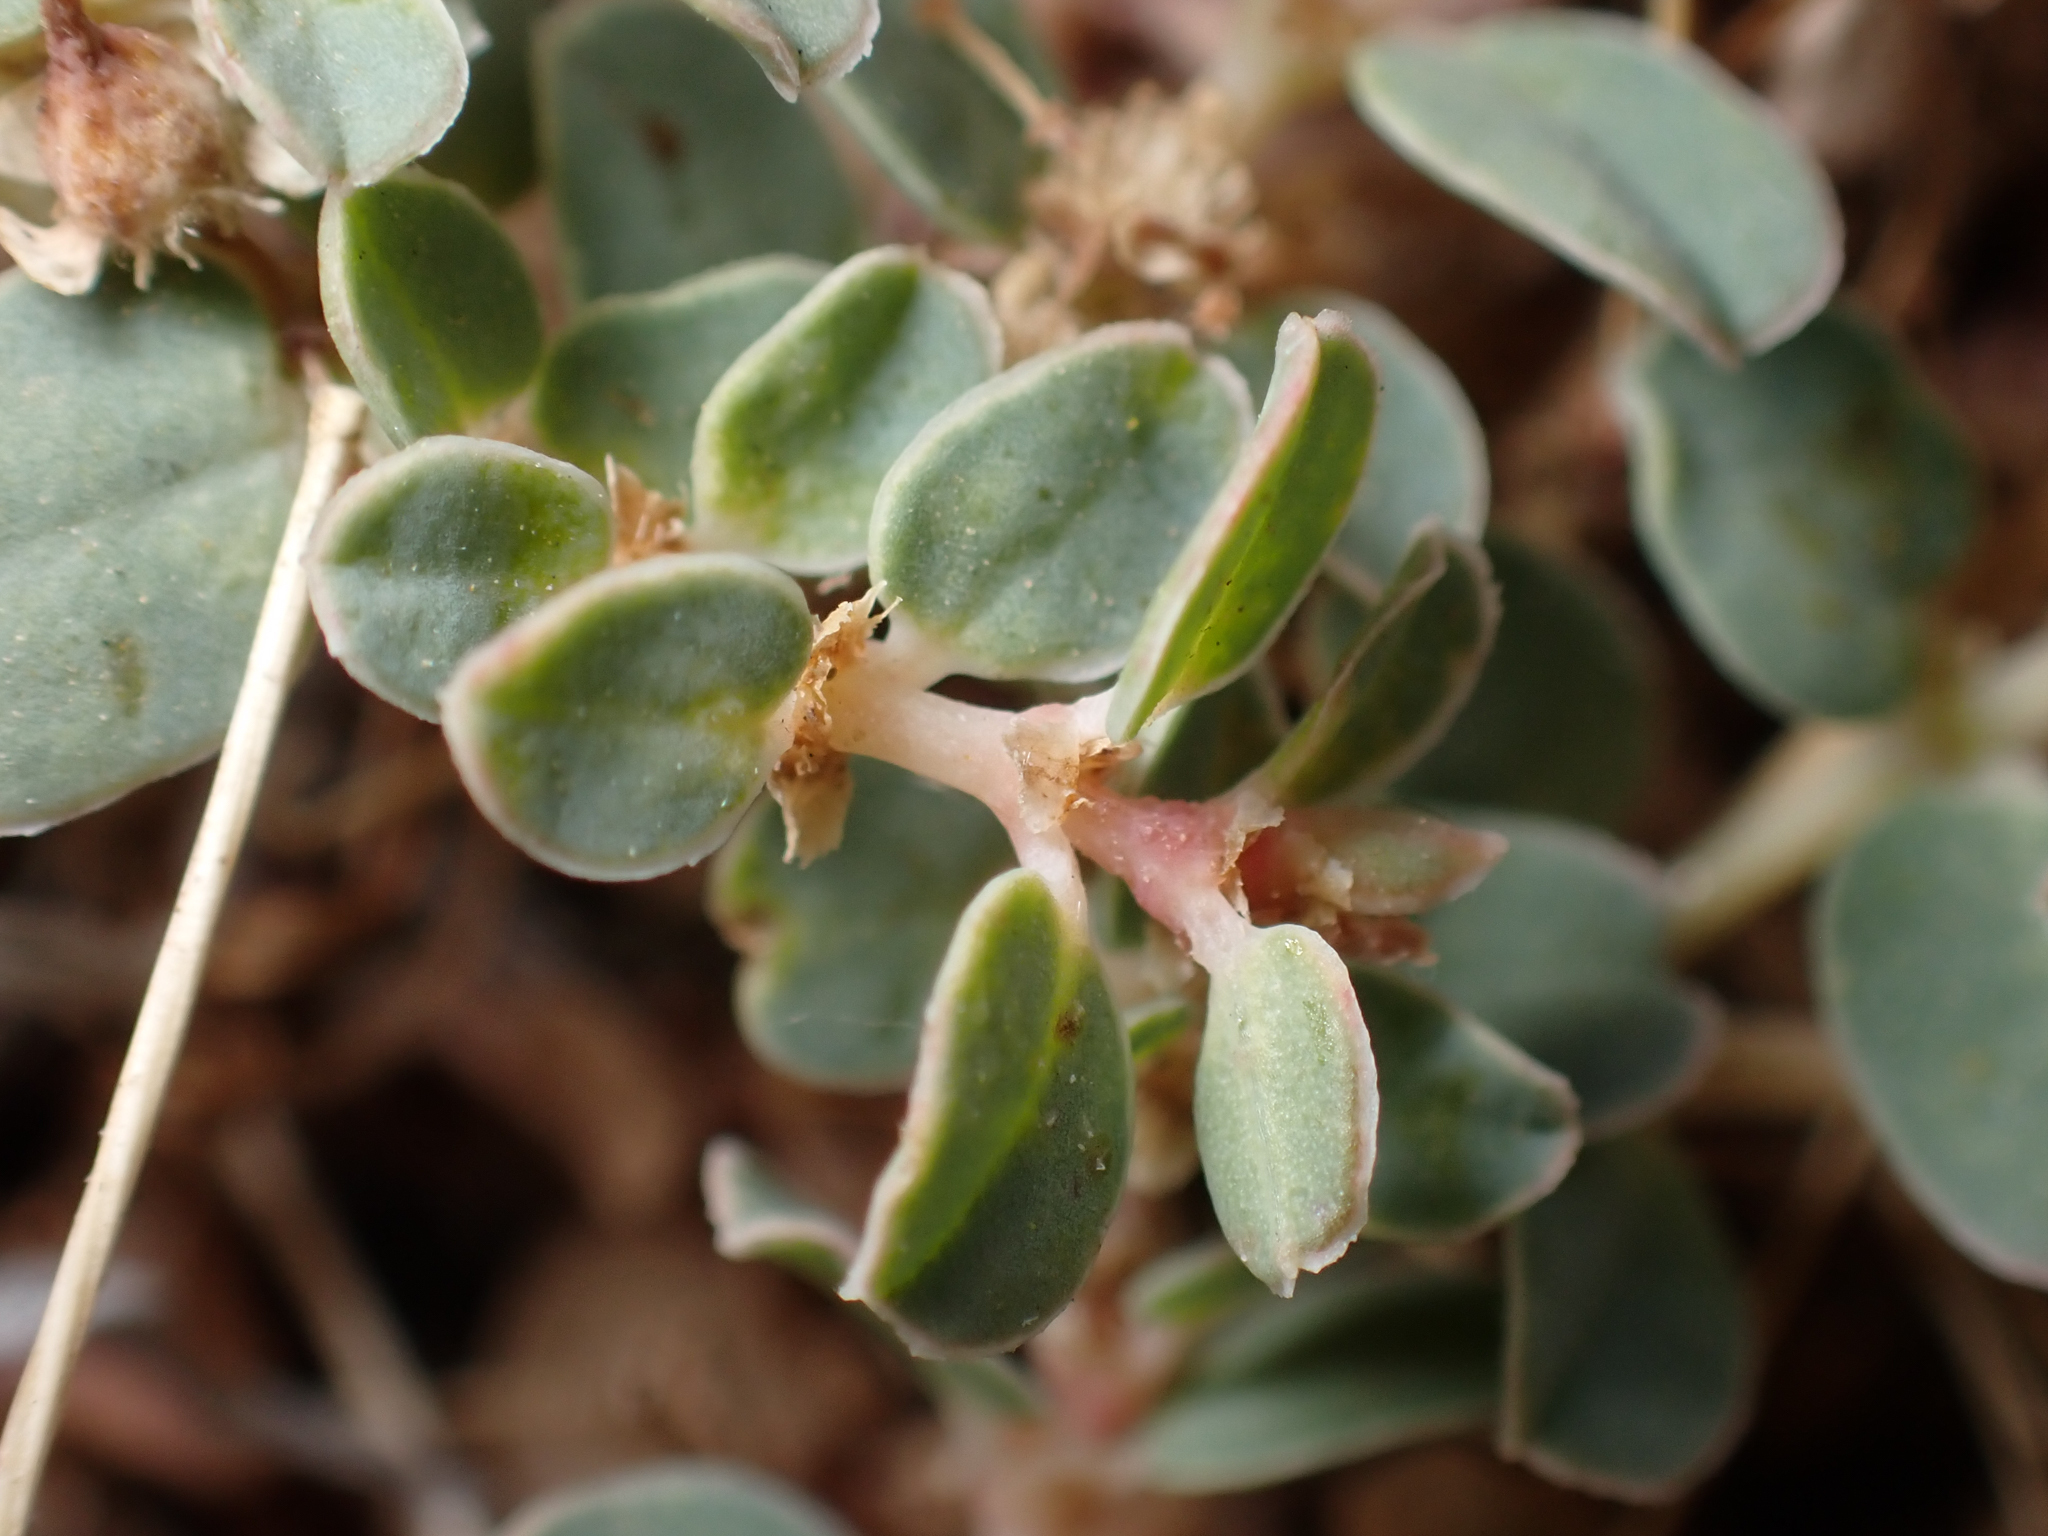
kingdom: Plantae
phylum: Tracheophyta
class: Magnoliopsida
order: Malpighiales
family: Euphorbiaceae
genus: Euphorbia
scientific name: Euphorbia albomarginata
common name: Whitemargin sandmat
